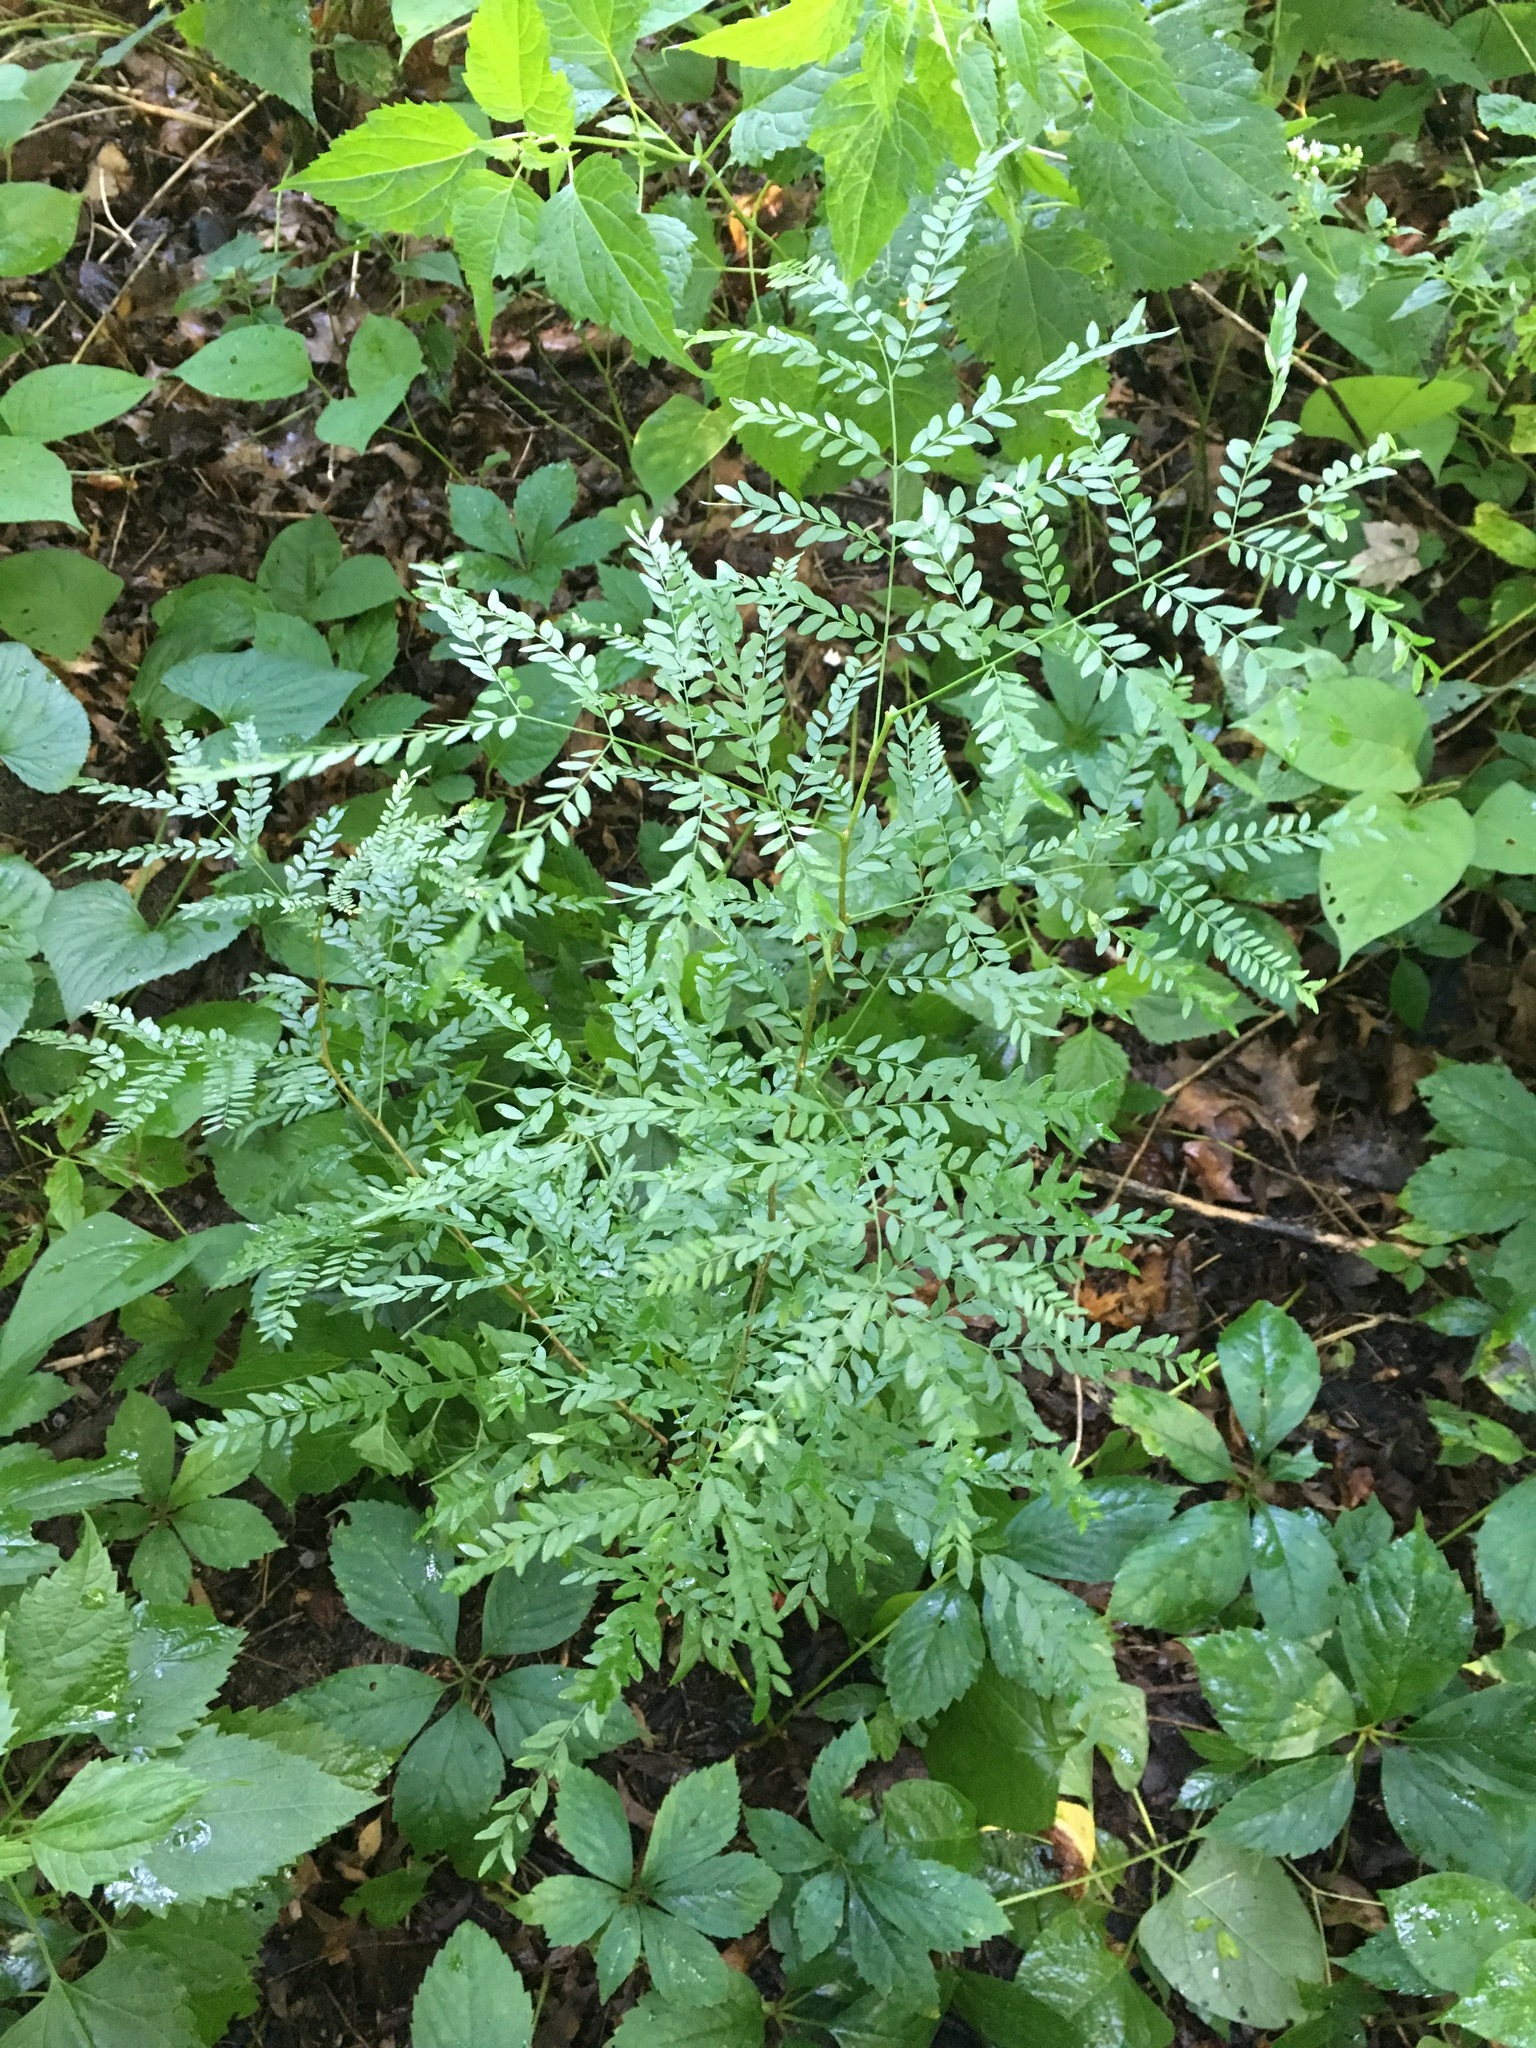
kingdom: Plantae
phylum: Tracheophyta
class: Magnoliopsida
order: Fabales
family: Fabaceae
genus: Gleditsia
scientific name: Gleditsia triacanthos
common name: Common honeylocust
